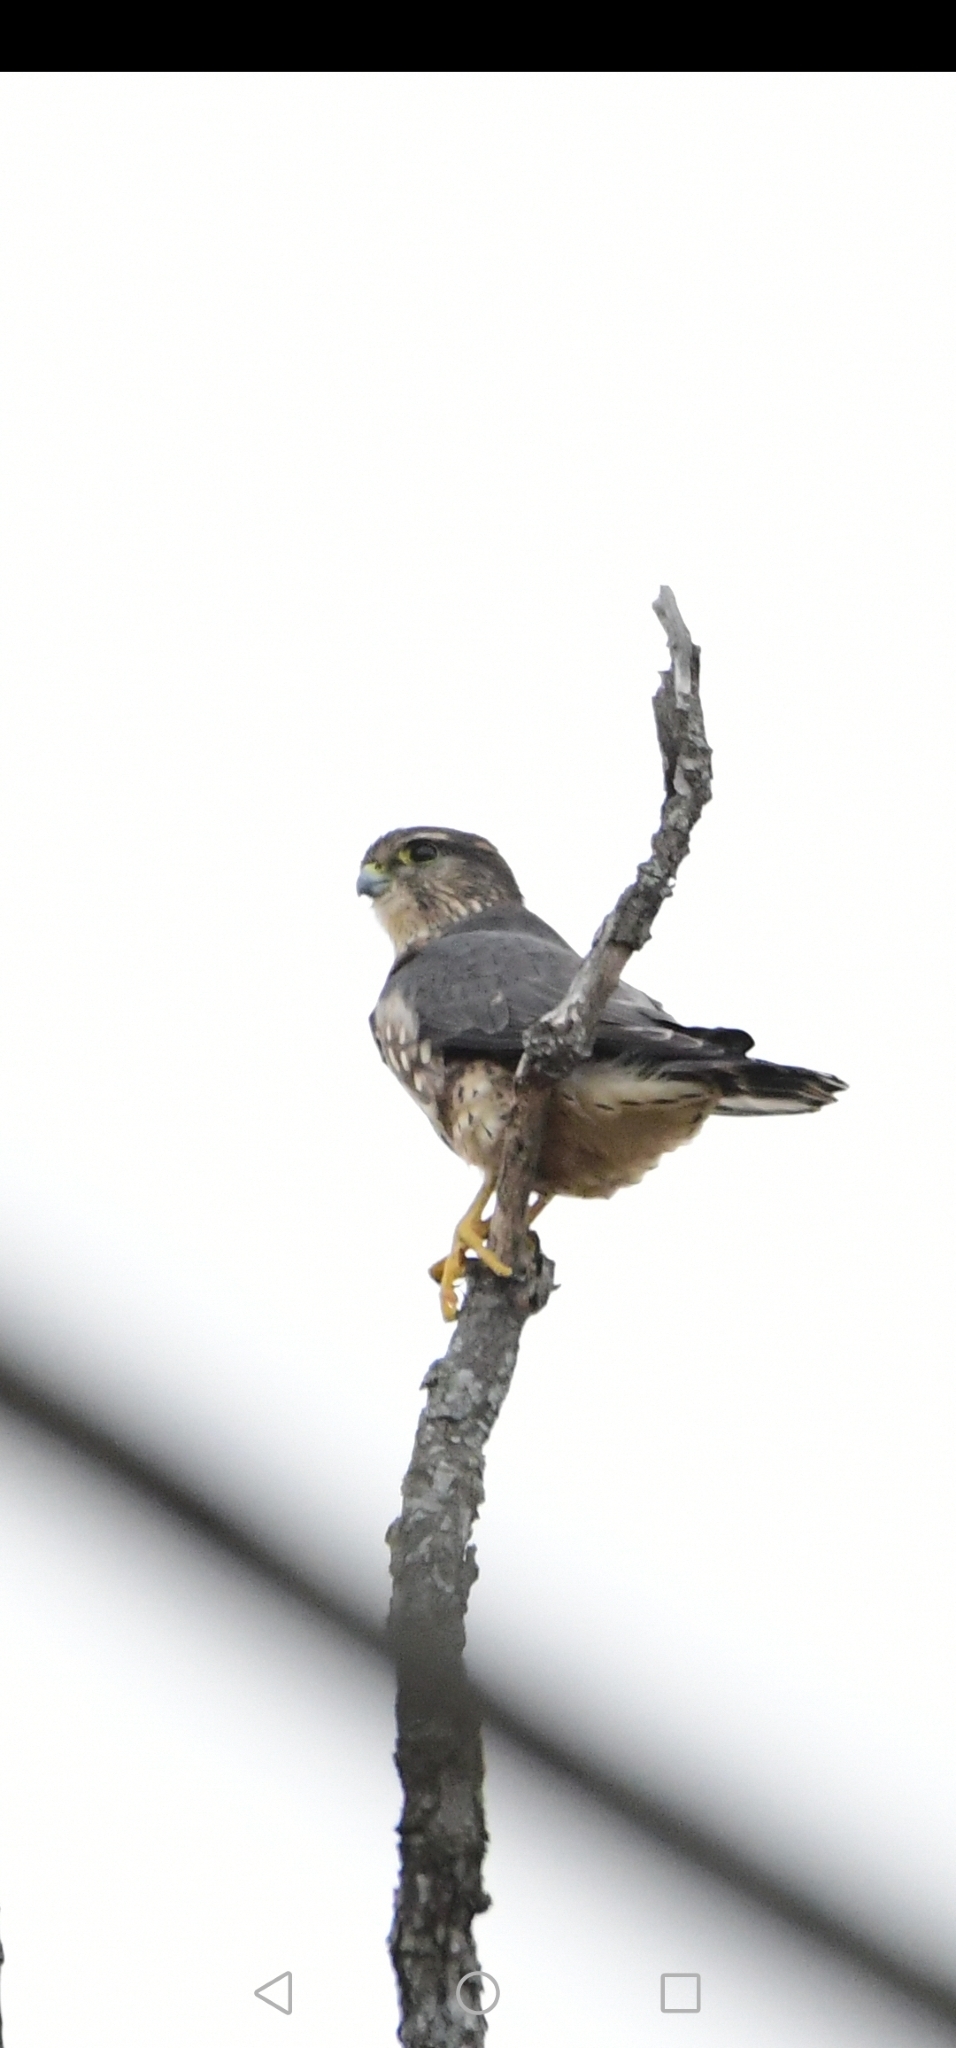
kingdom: Animalia
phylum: Chordata
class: Aves
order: Falconiformes
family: Falconidae
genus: Falco
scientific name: Falco columbarius
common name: Merlin
